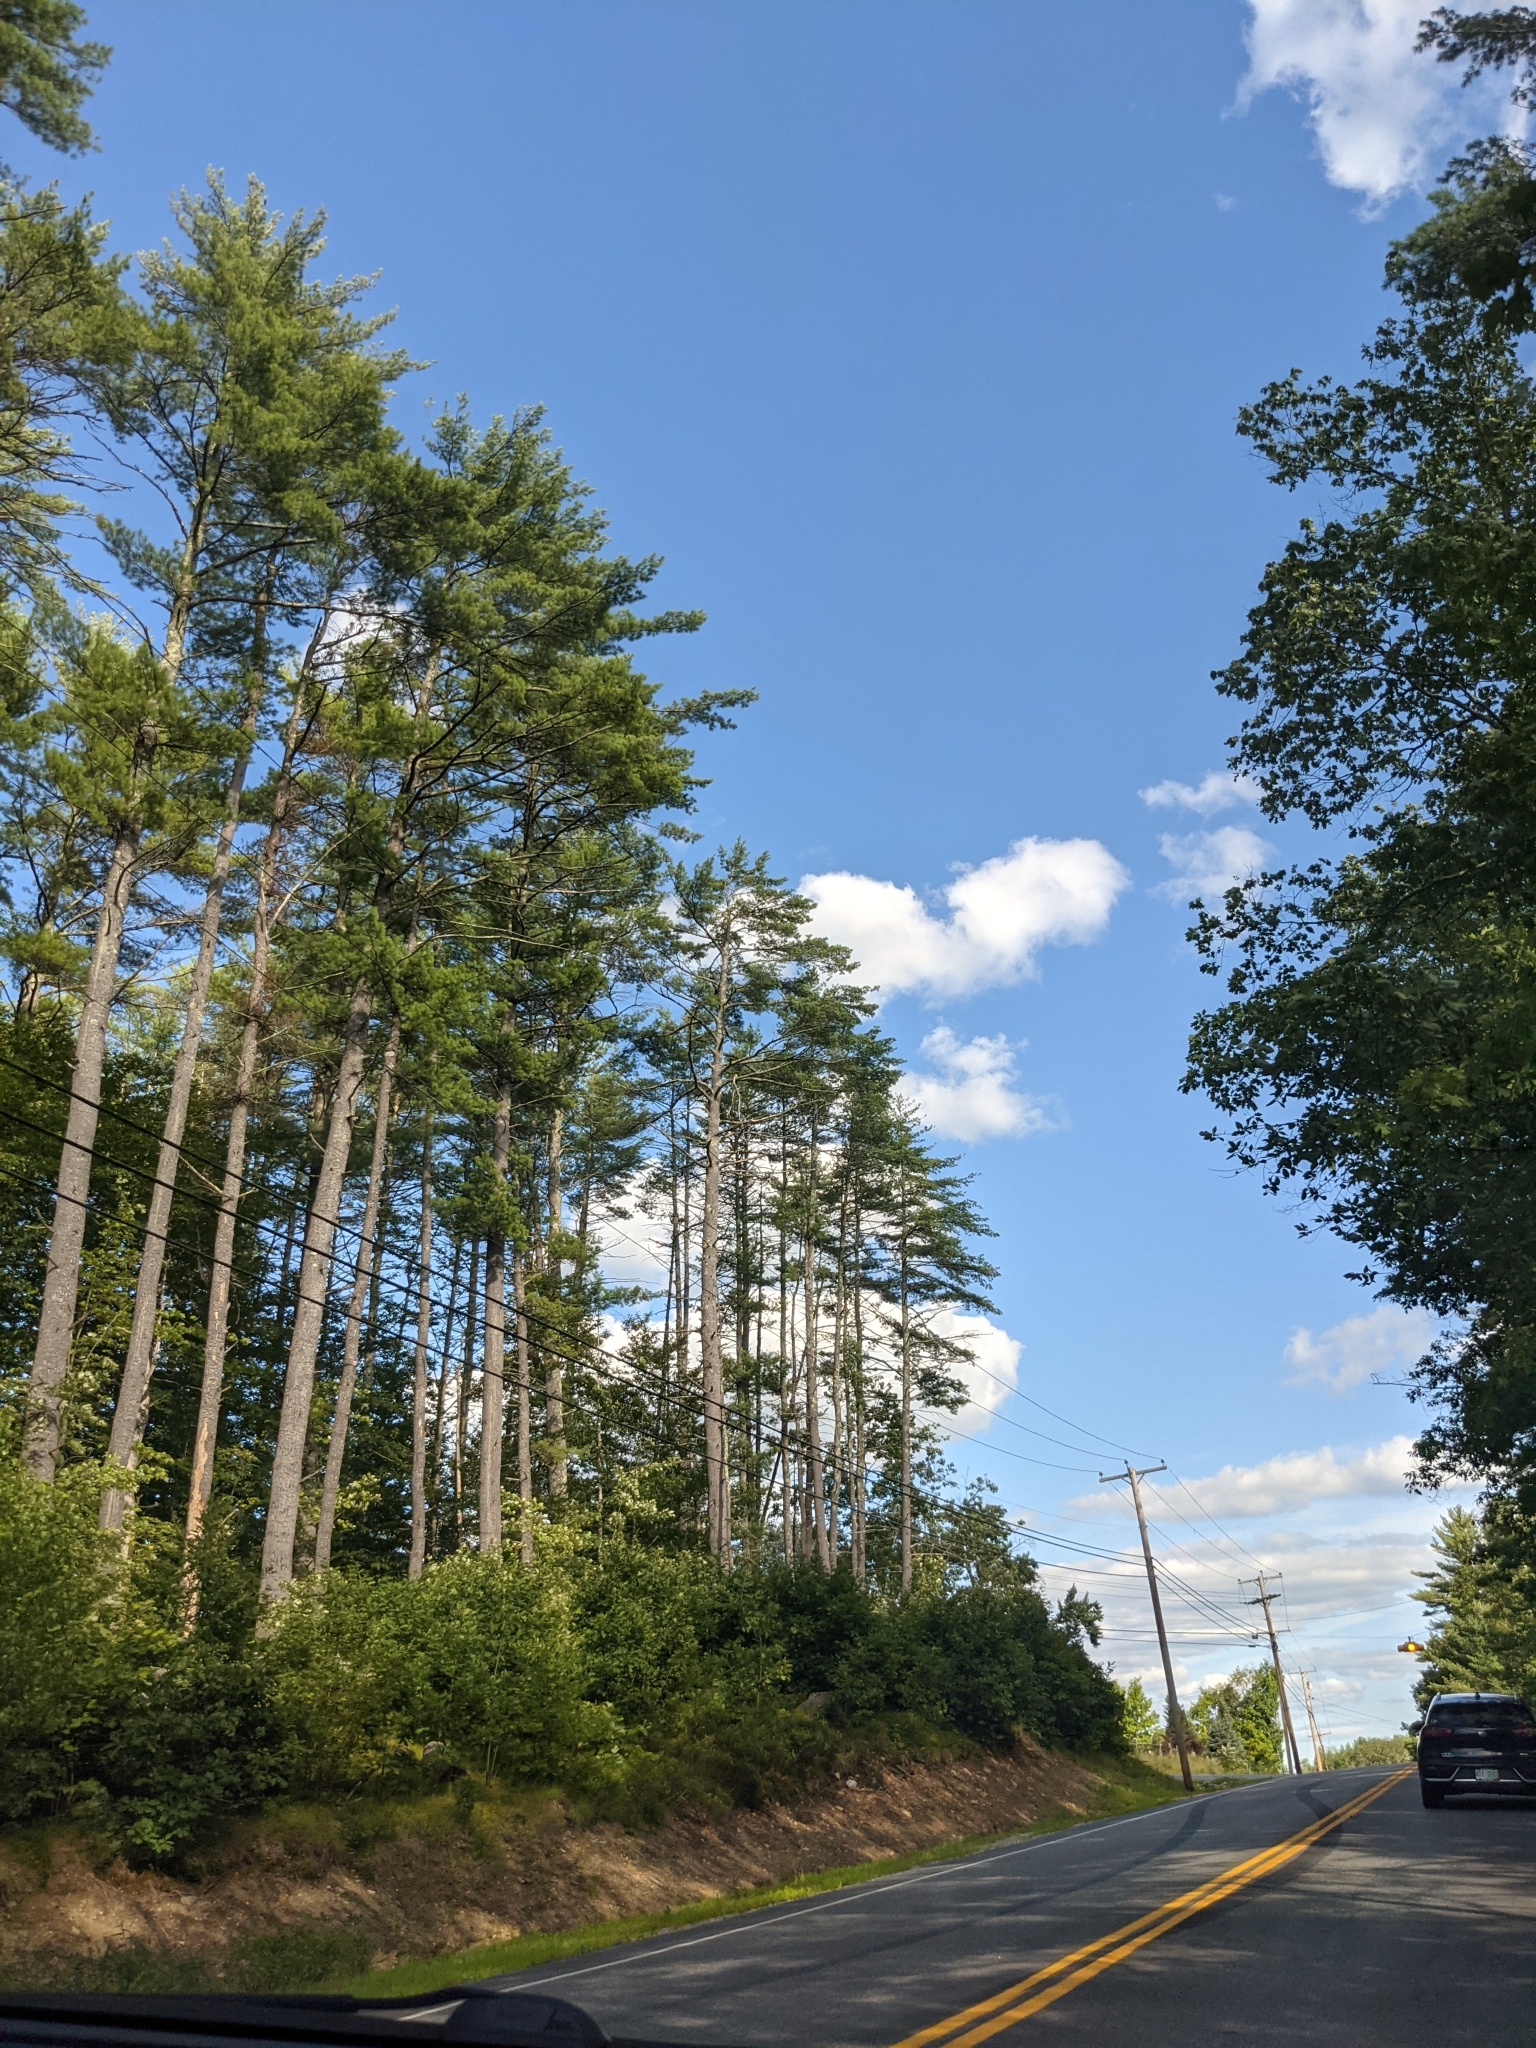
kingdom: Plantae
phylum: Tracheophyta
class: Pinopsida
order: Pinales
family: Pinaceae
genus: Pinus
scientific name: Pinus strobus
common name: Weymouth pine
